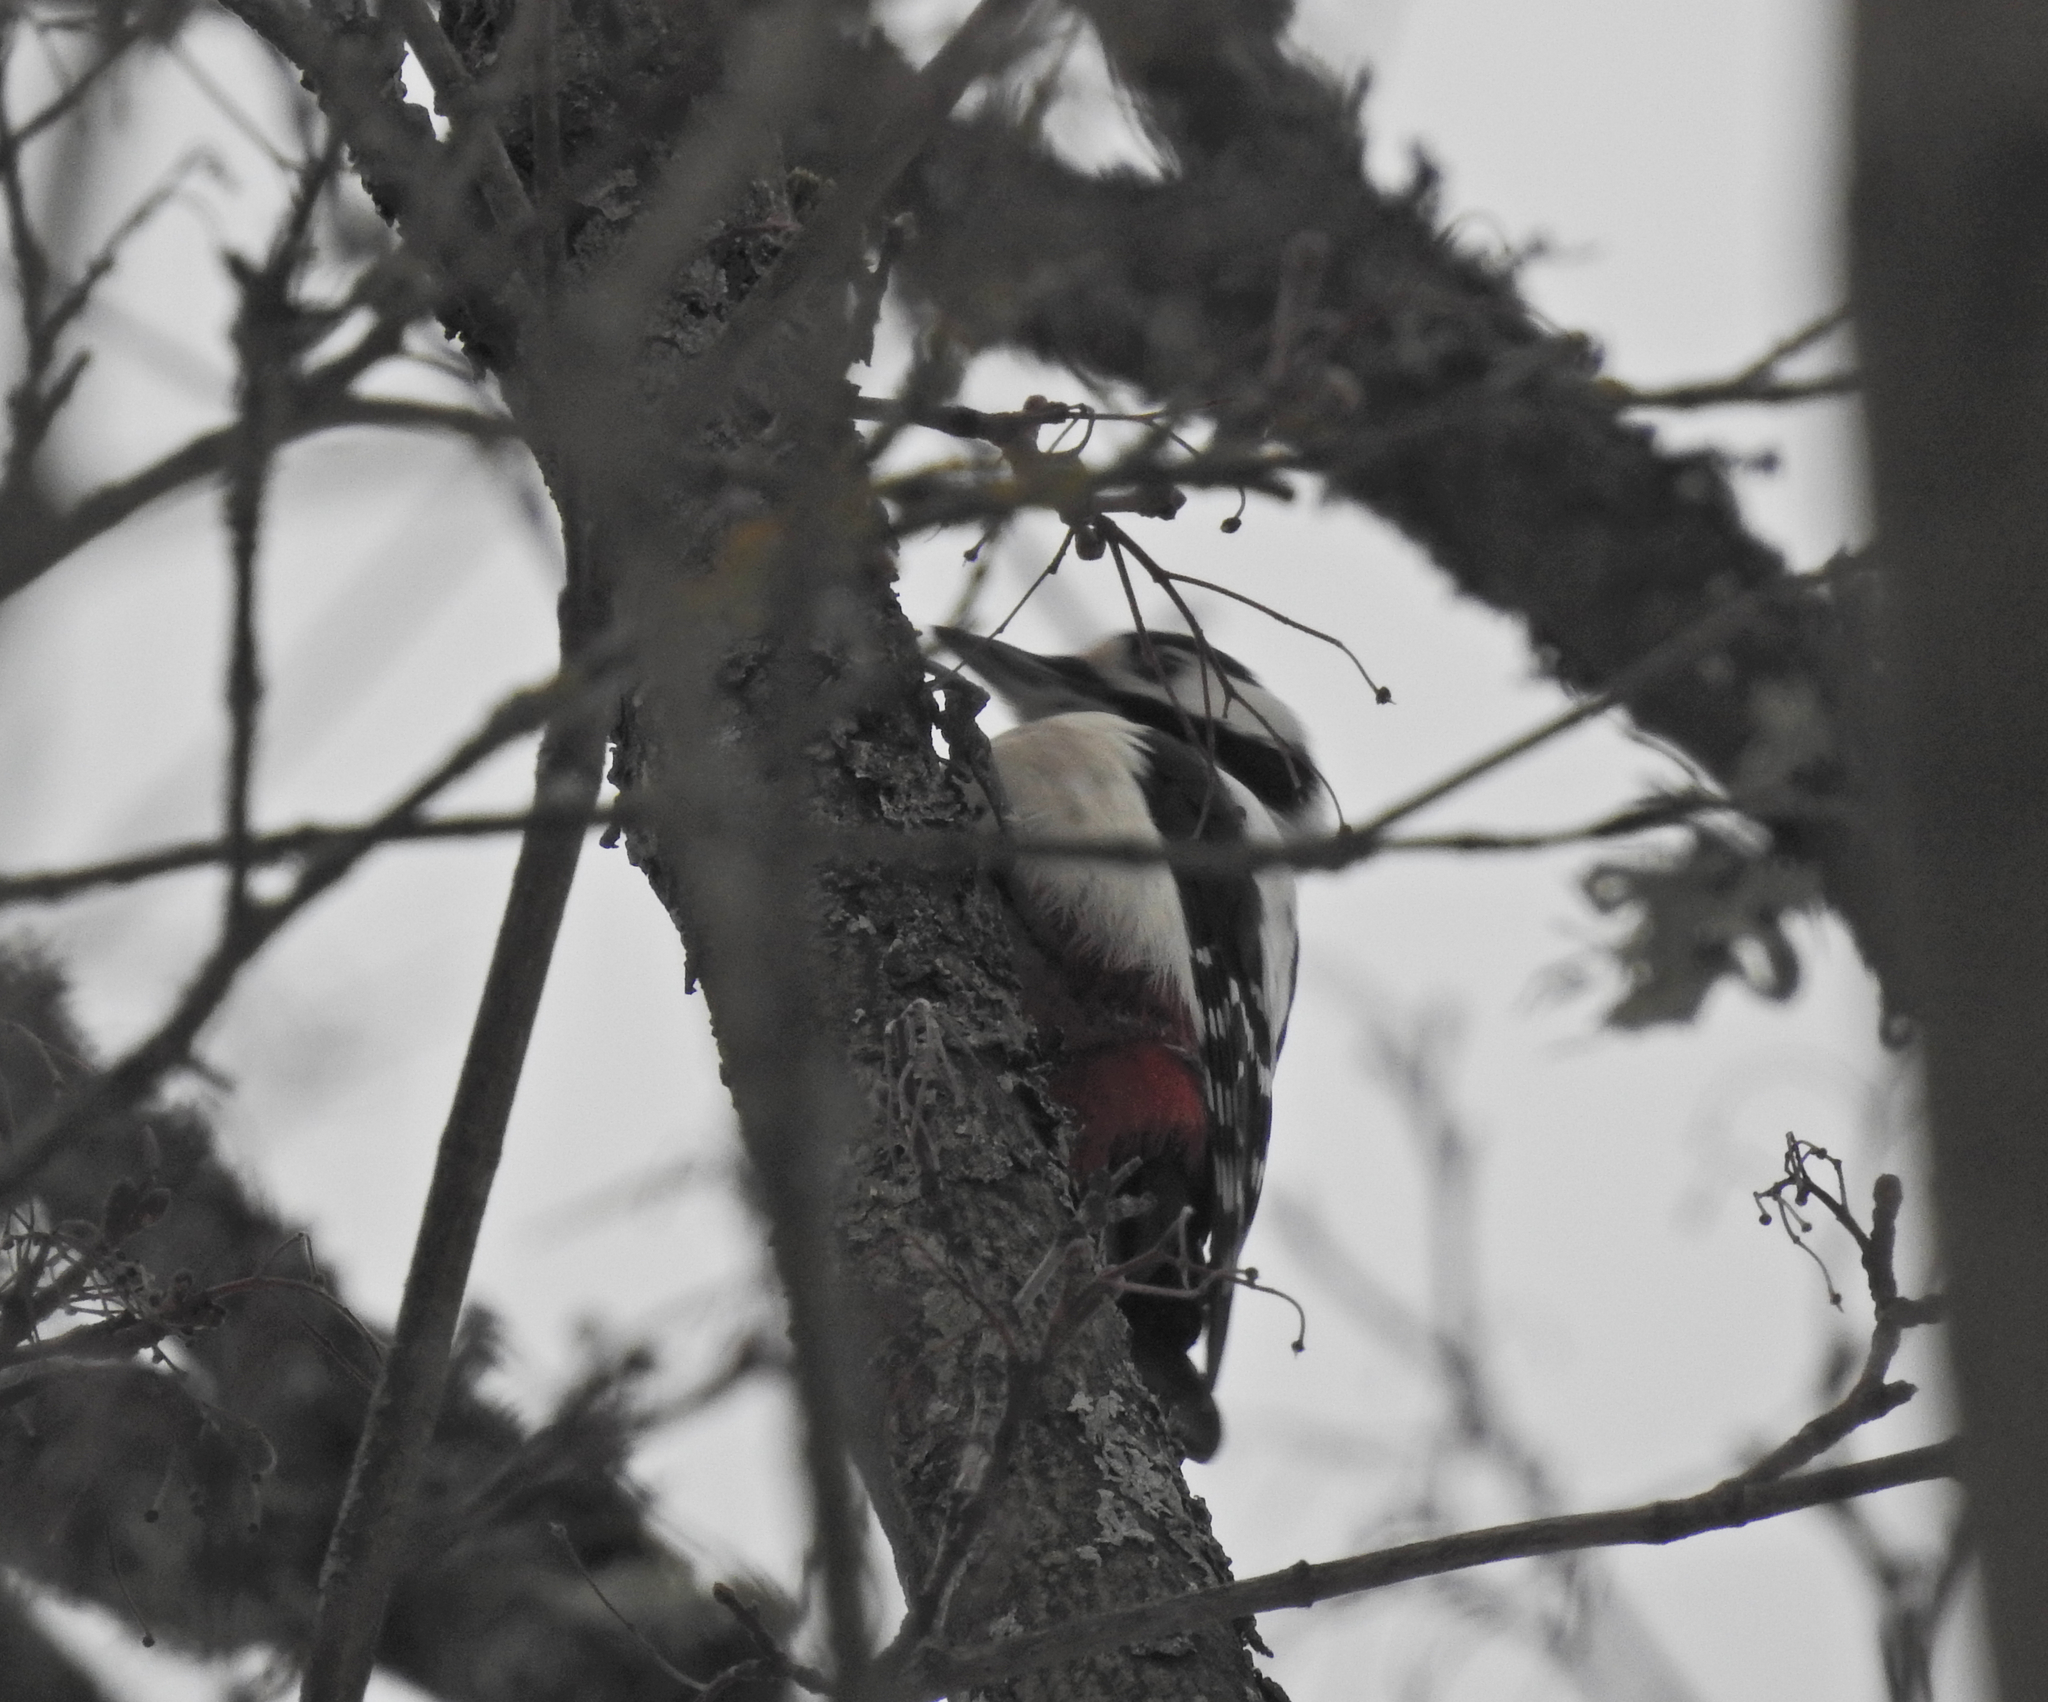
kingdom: Animalia
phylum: Chordata
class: Aves
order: Piciformes
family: Picidae
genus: Dendrocopos
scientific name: Dendrocopos major
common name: Great spotted woodpecker
